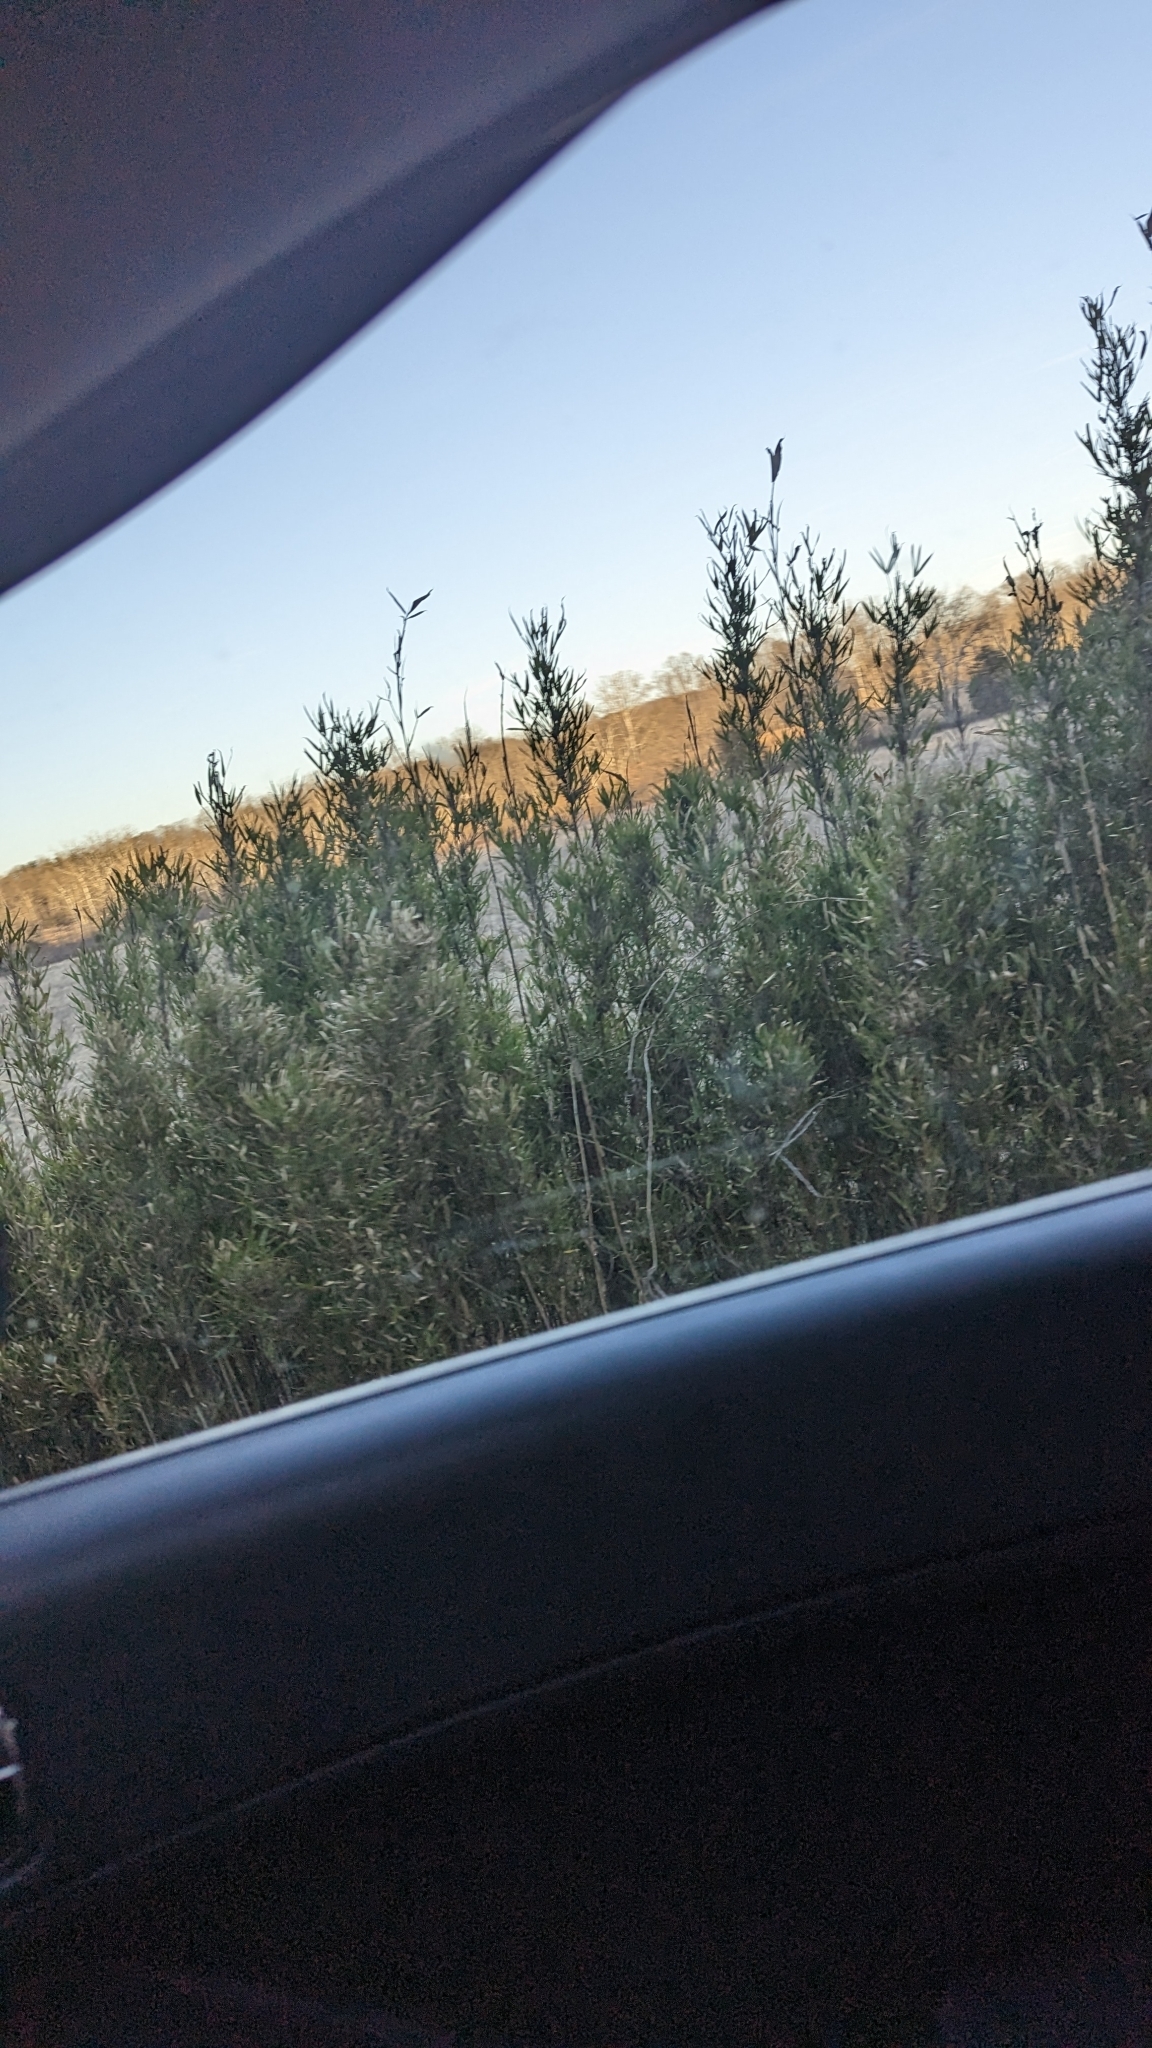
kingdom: Plantae
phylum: Tracheophyta
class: Liliopsida
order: Poales
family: Poaceae
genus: Arundinaria
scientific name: Arundinaria gigantea
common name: Giant cane
